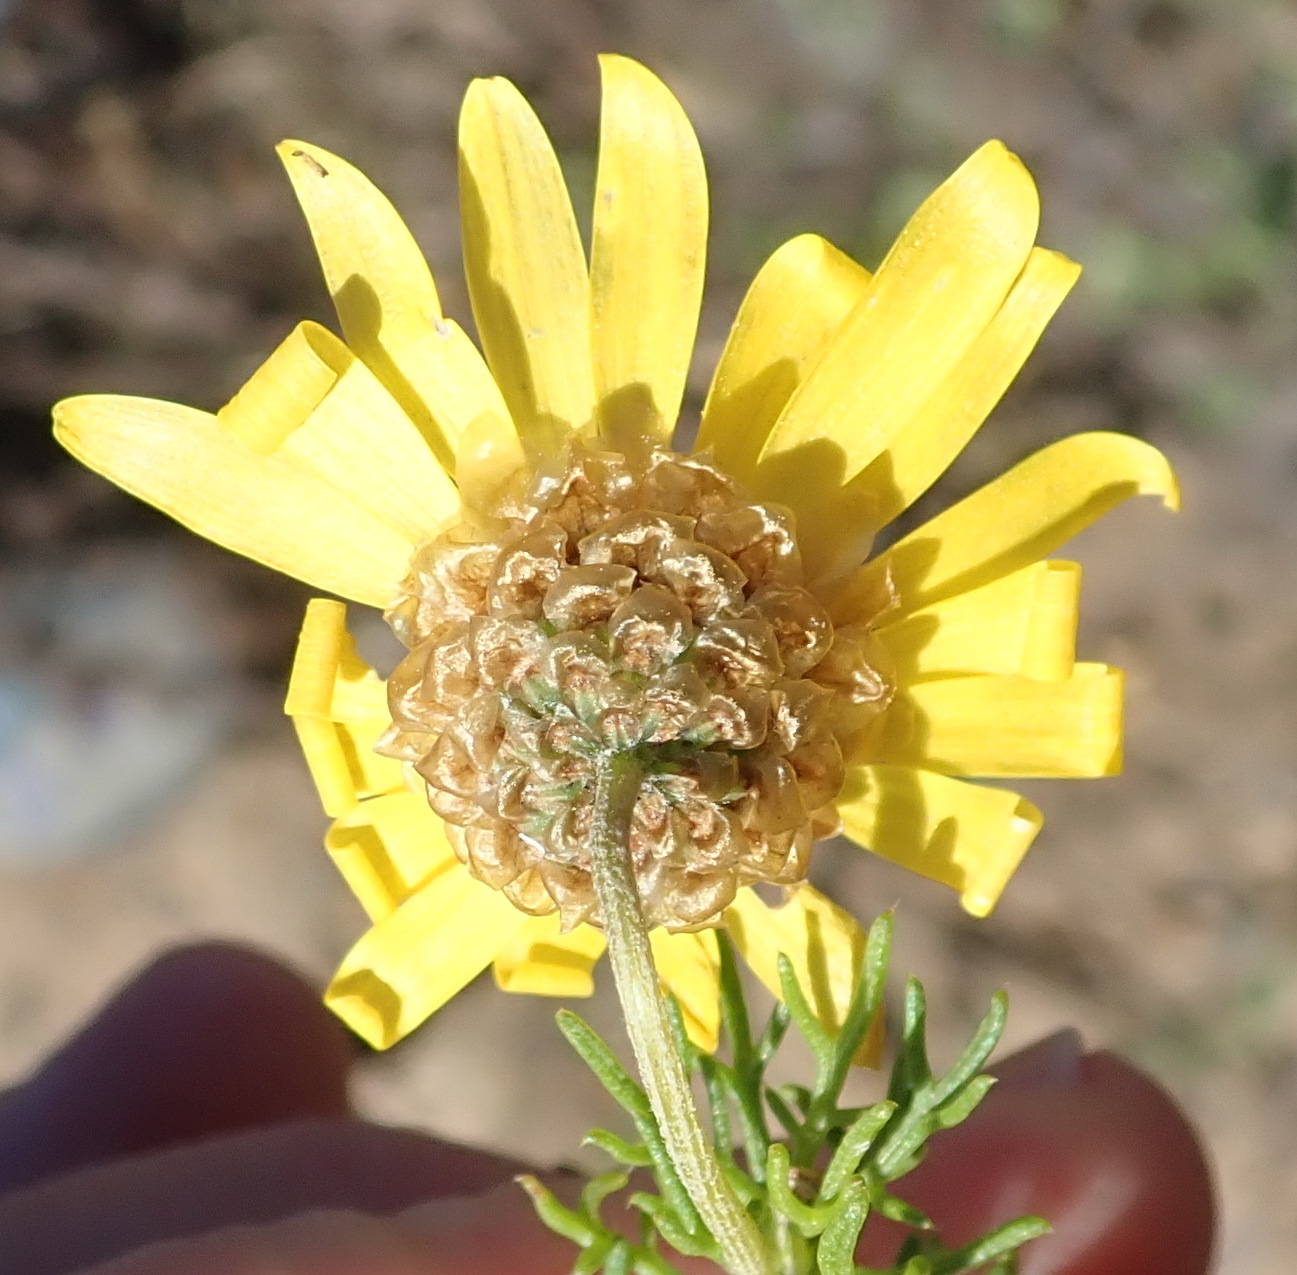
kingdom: Plantae
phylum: Tracheophyta
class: Magnoliopsida
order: Asterales
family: Asteraceae
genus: Ursinia
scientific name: Ursinia scariosa
